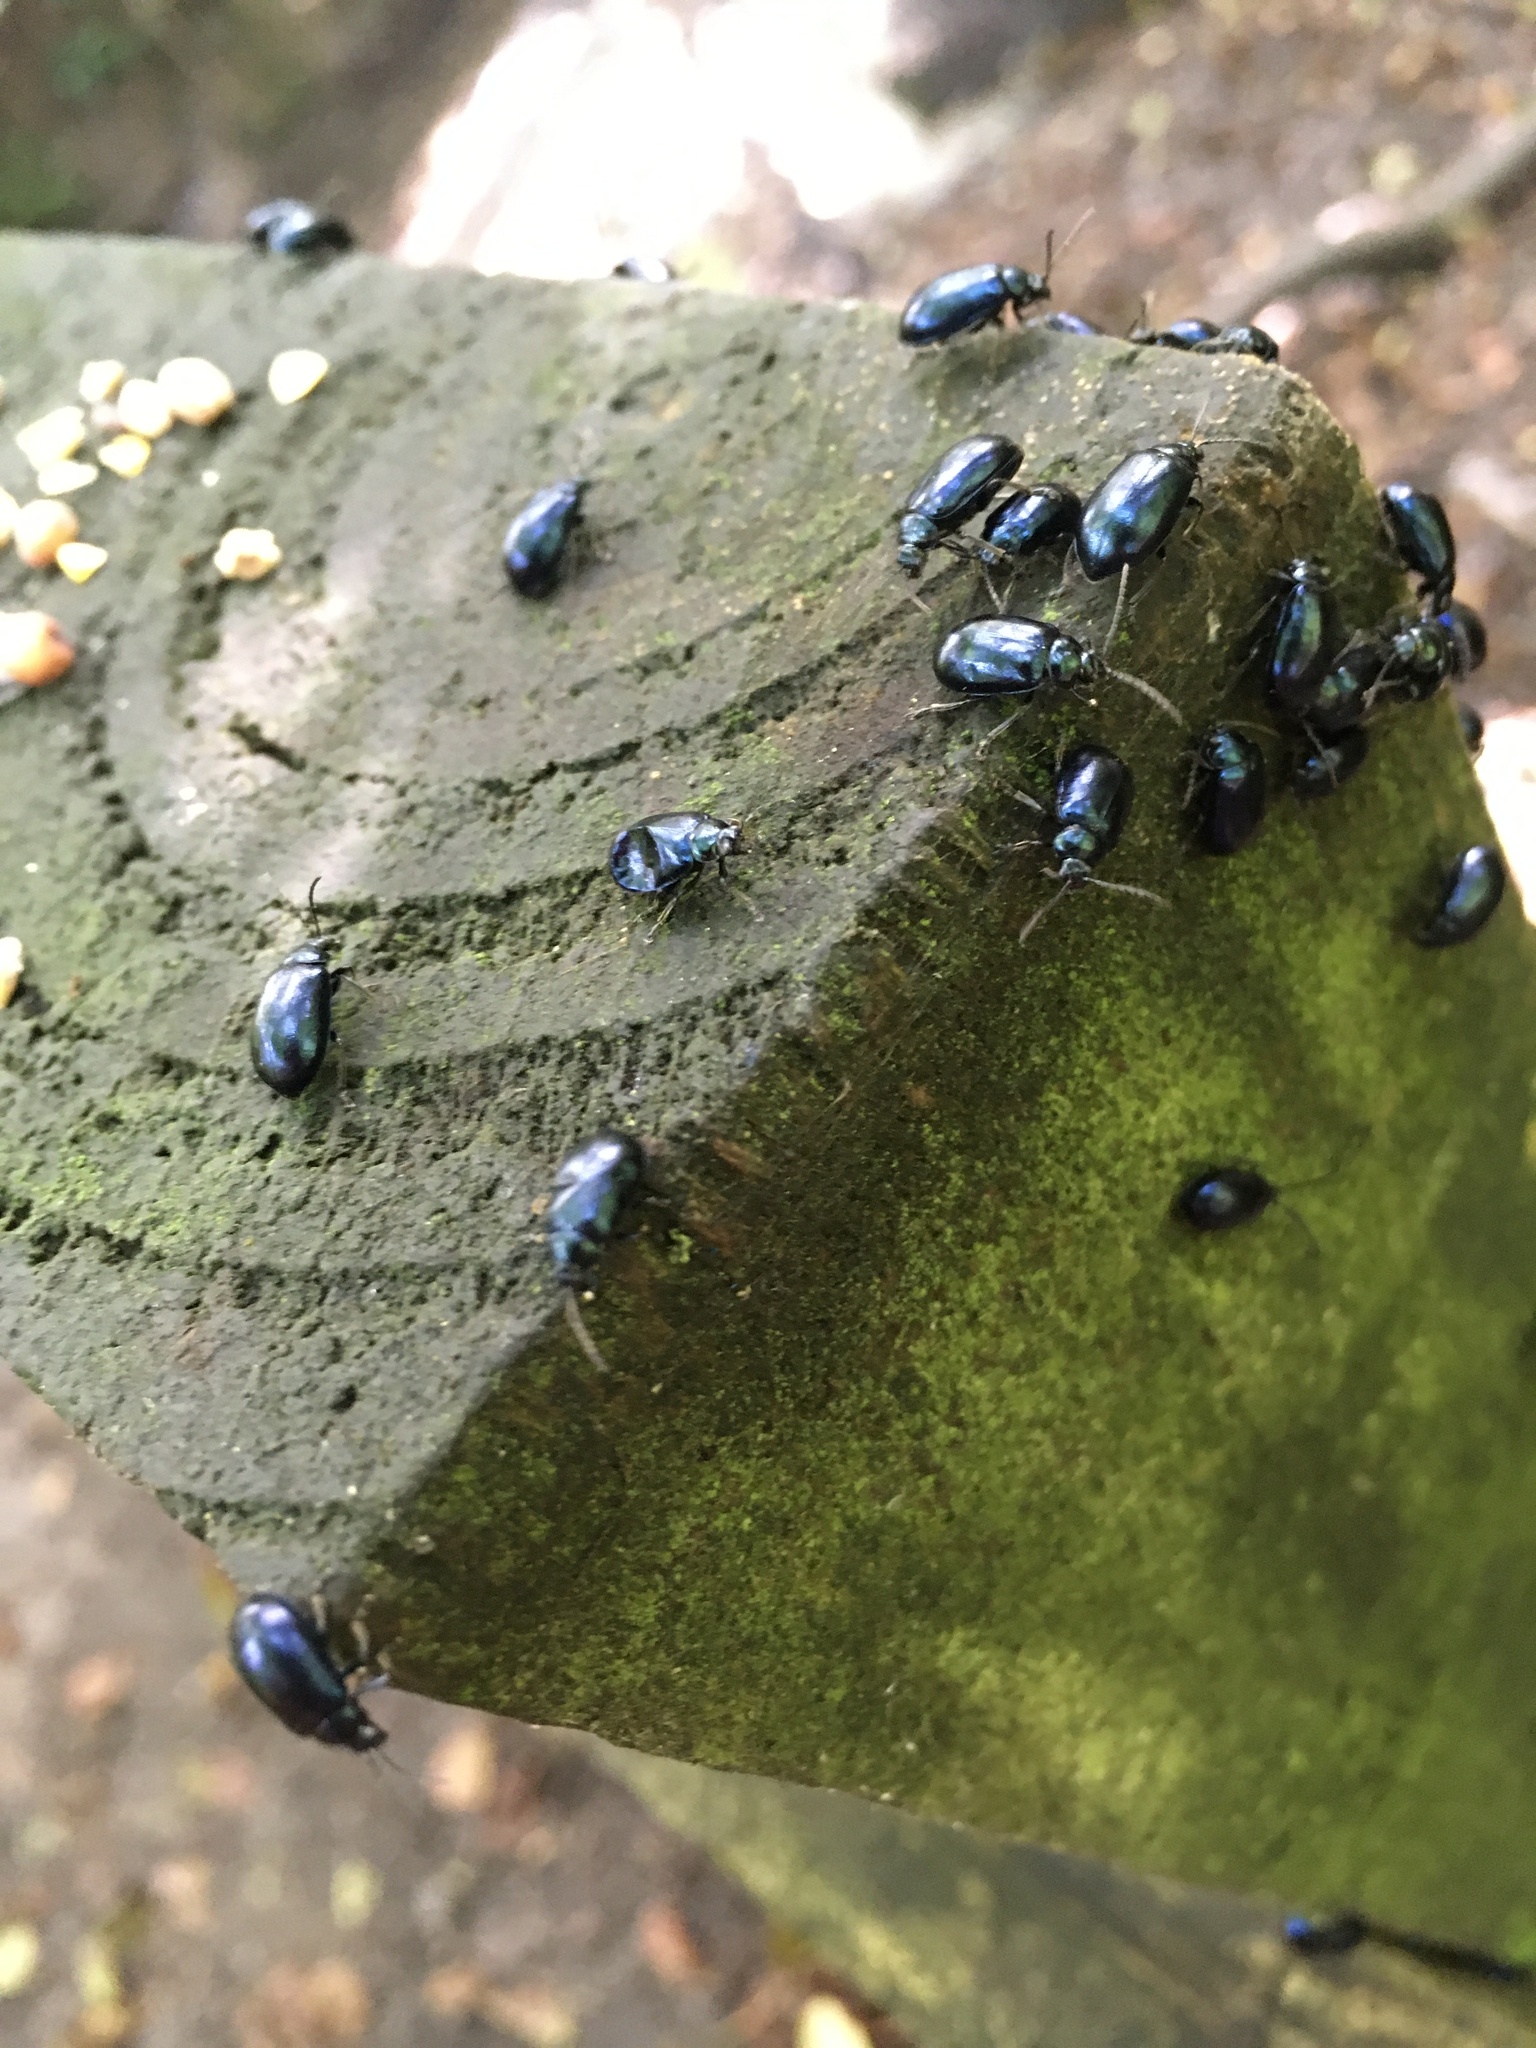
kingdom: Animalia
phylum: Arthropoda
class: Insecta
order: Coleoptera
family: Chrysomelidae
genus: Agelastica
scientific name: Agelastica alni
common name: Alder leaf beetle
